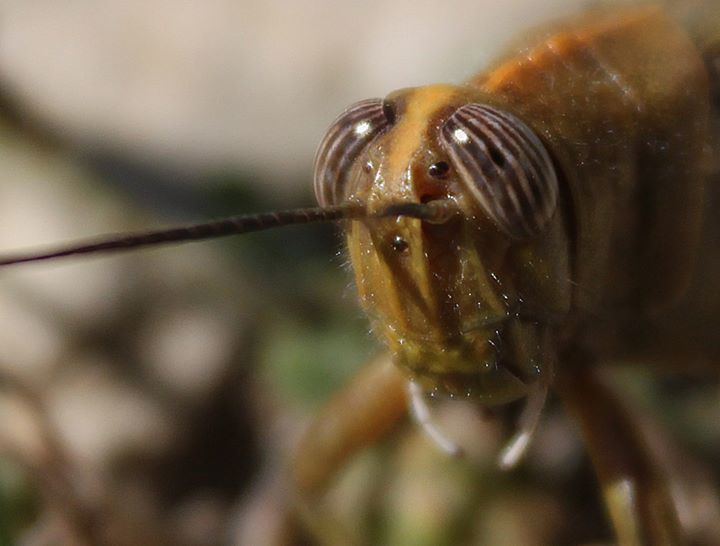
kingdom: Animalia
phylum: Arthropoda
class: Insecta
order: Orthoptera
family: Acrididae
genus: Anacridium
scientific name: Anacridium aegyptium
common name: Egyptian grasshopper
